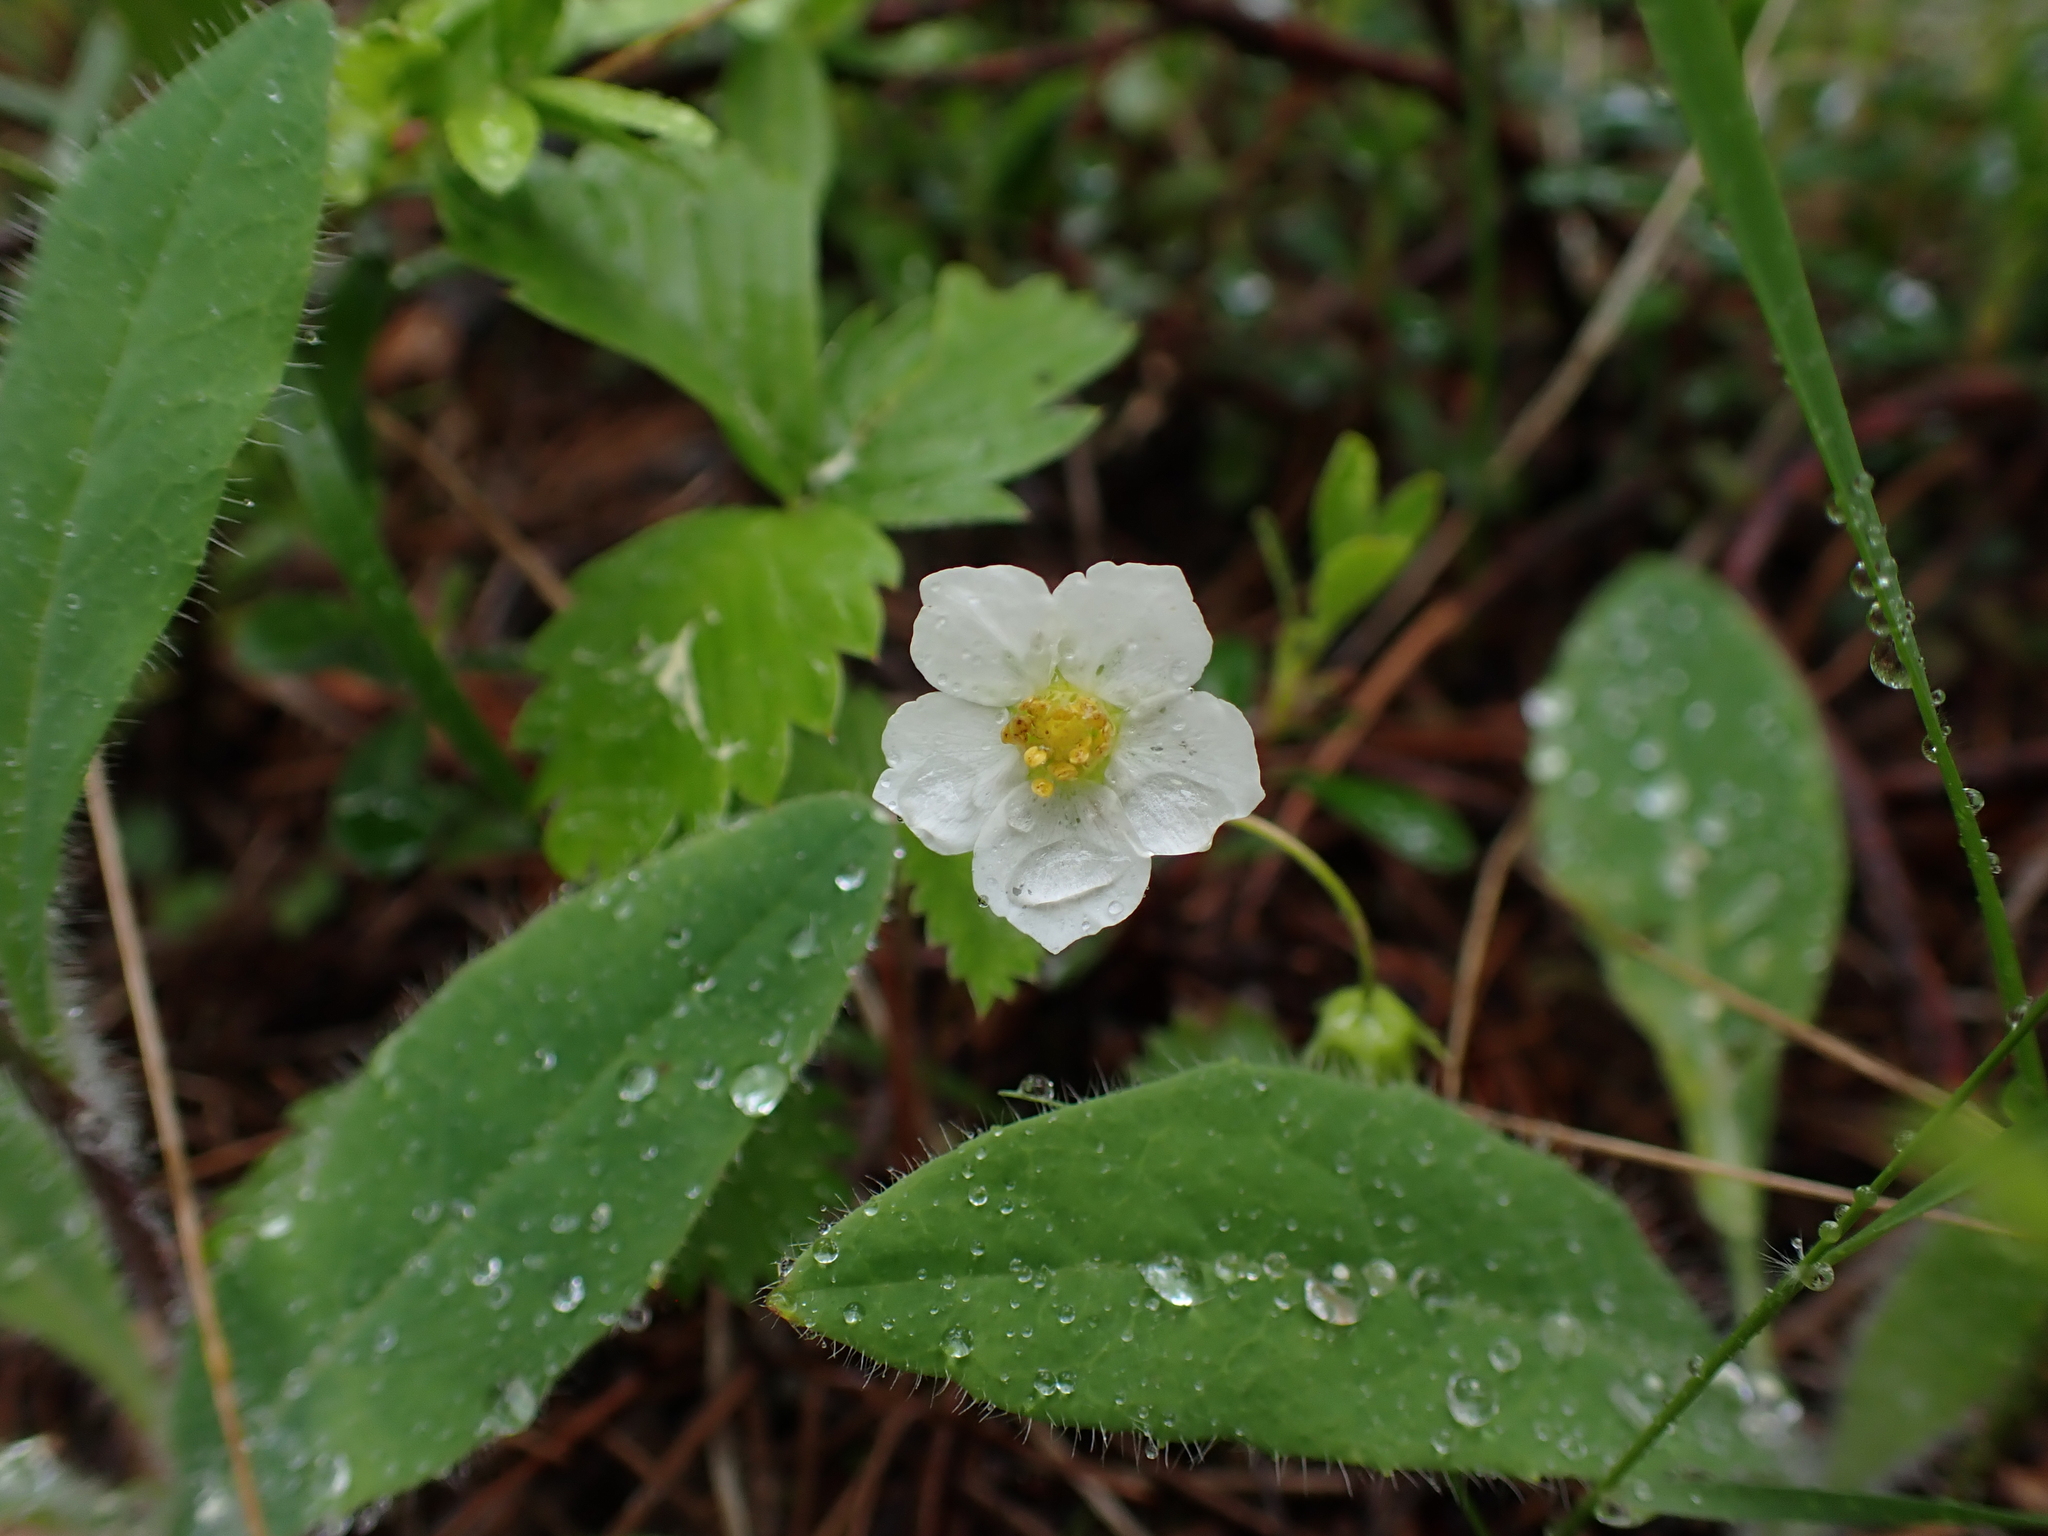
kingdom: Plantae
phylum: Tracheophyta
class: Magnoliopsida
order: Rosales
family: Rosaceae
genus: Fragaria
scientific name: Fragaria vesca
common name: Wild strawberry
